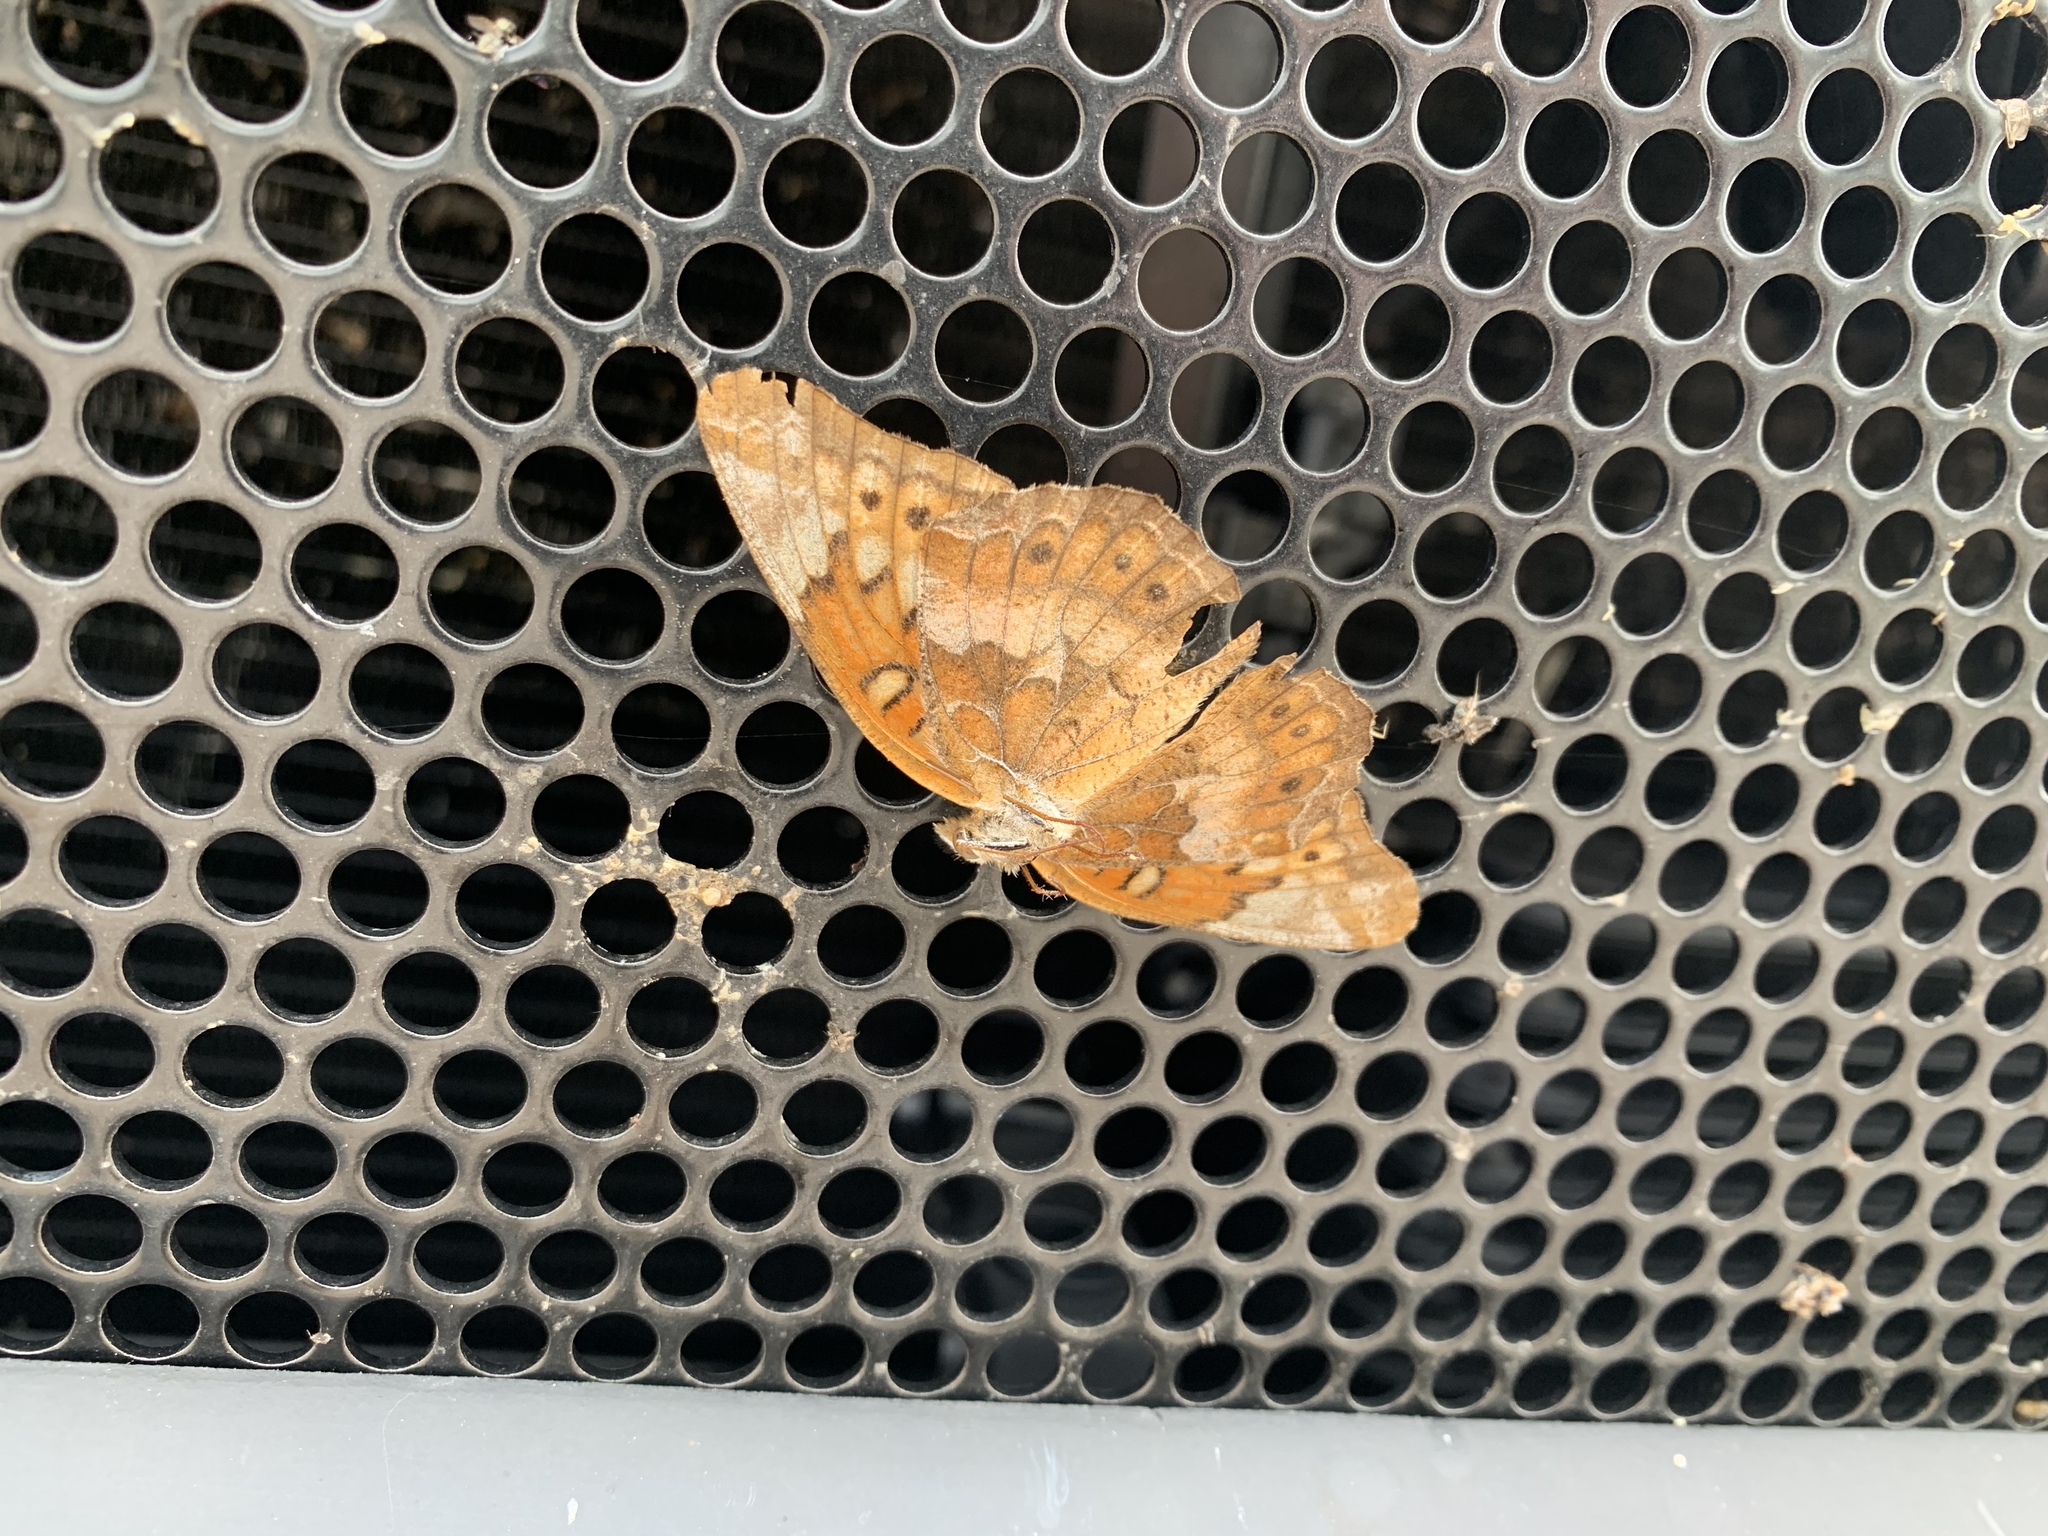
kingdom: Animalia
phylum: Arthropoda
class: Insecta
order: Lepidoptera
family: Nymphalidae
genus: Euptoieta
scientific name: Euptoieta claudia
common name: Variegated fritillary
